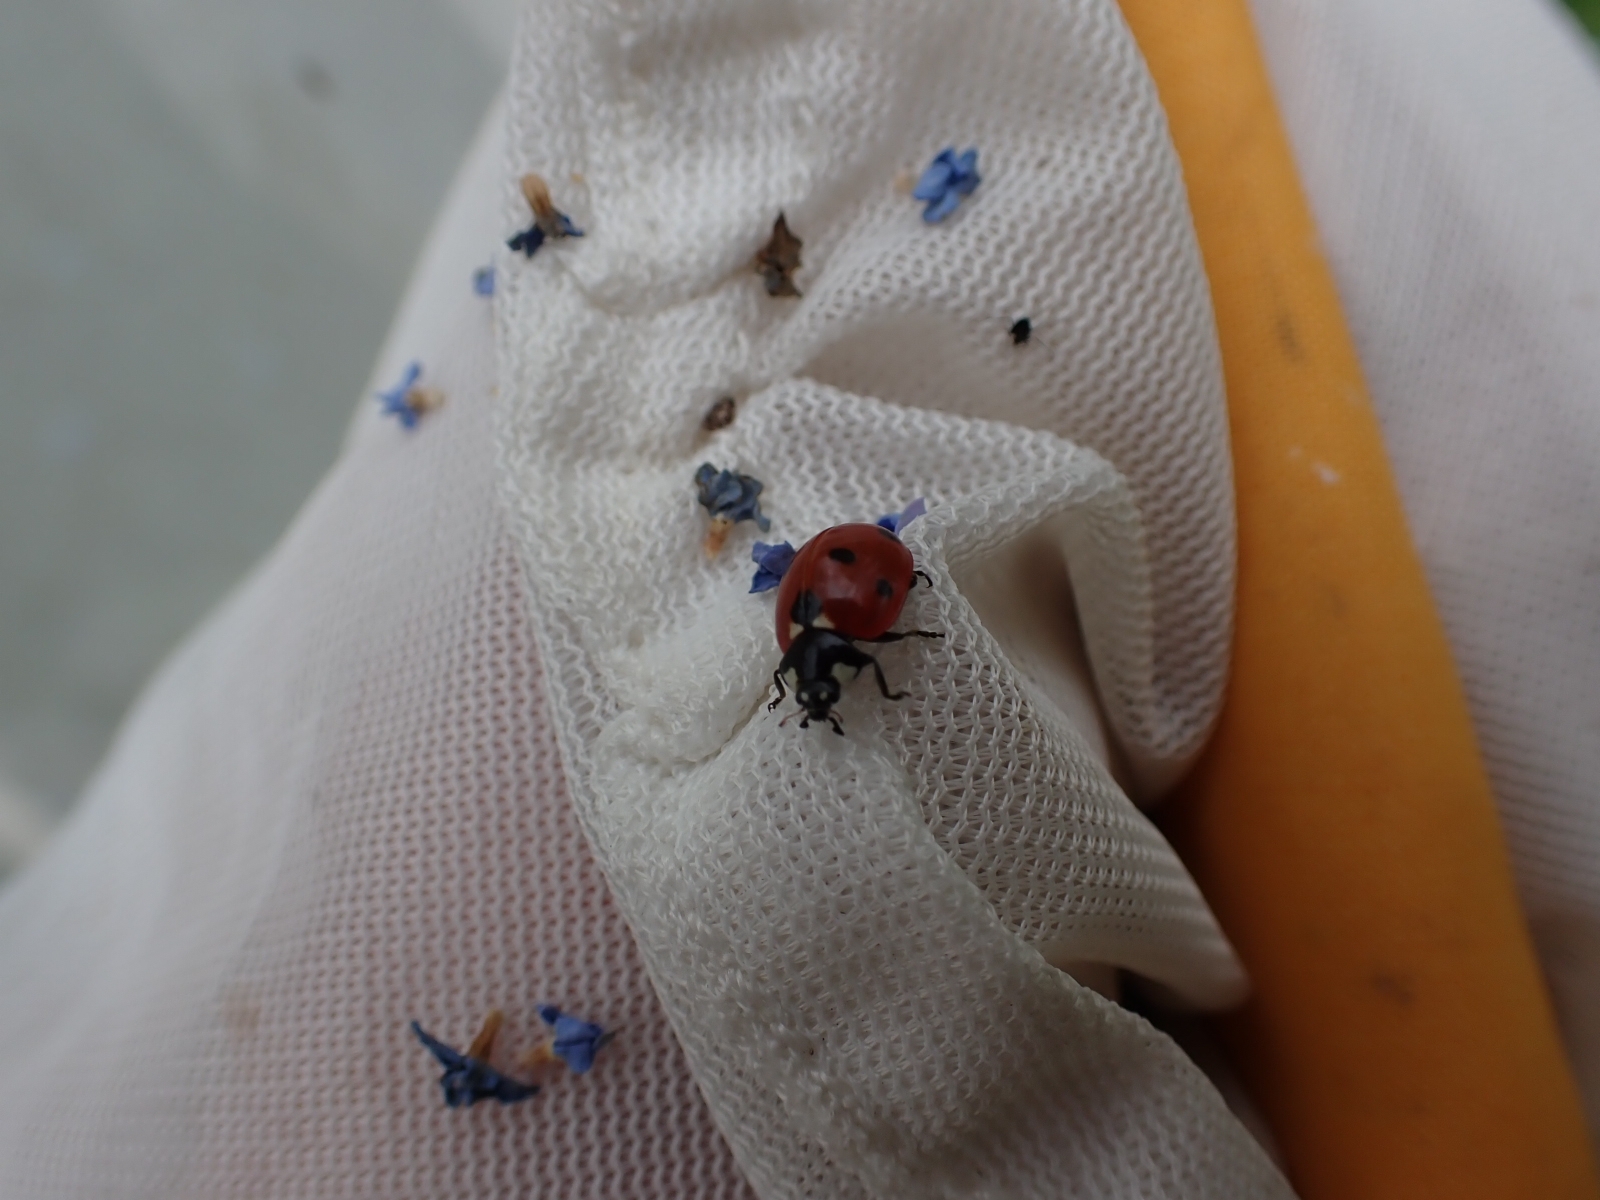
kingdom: Animalia
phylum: Arthropoda
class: Insecta
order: Coleoptera
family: Coccinellidae
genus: Coccinella
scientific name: Coccinella septempunctata
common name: Sevenspotted lady beetle
